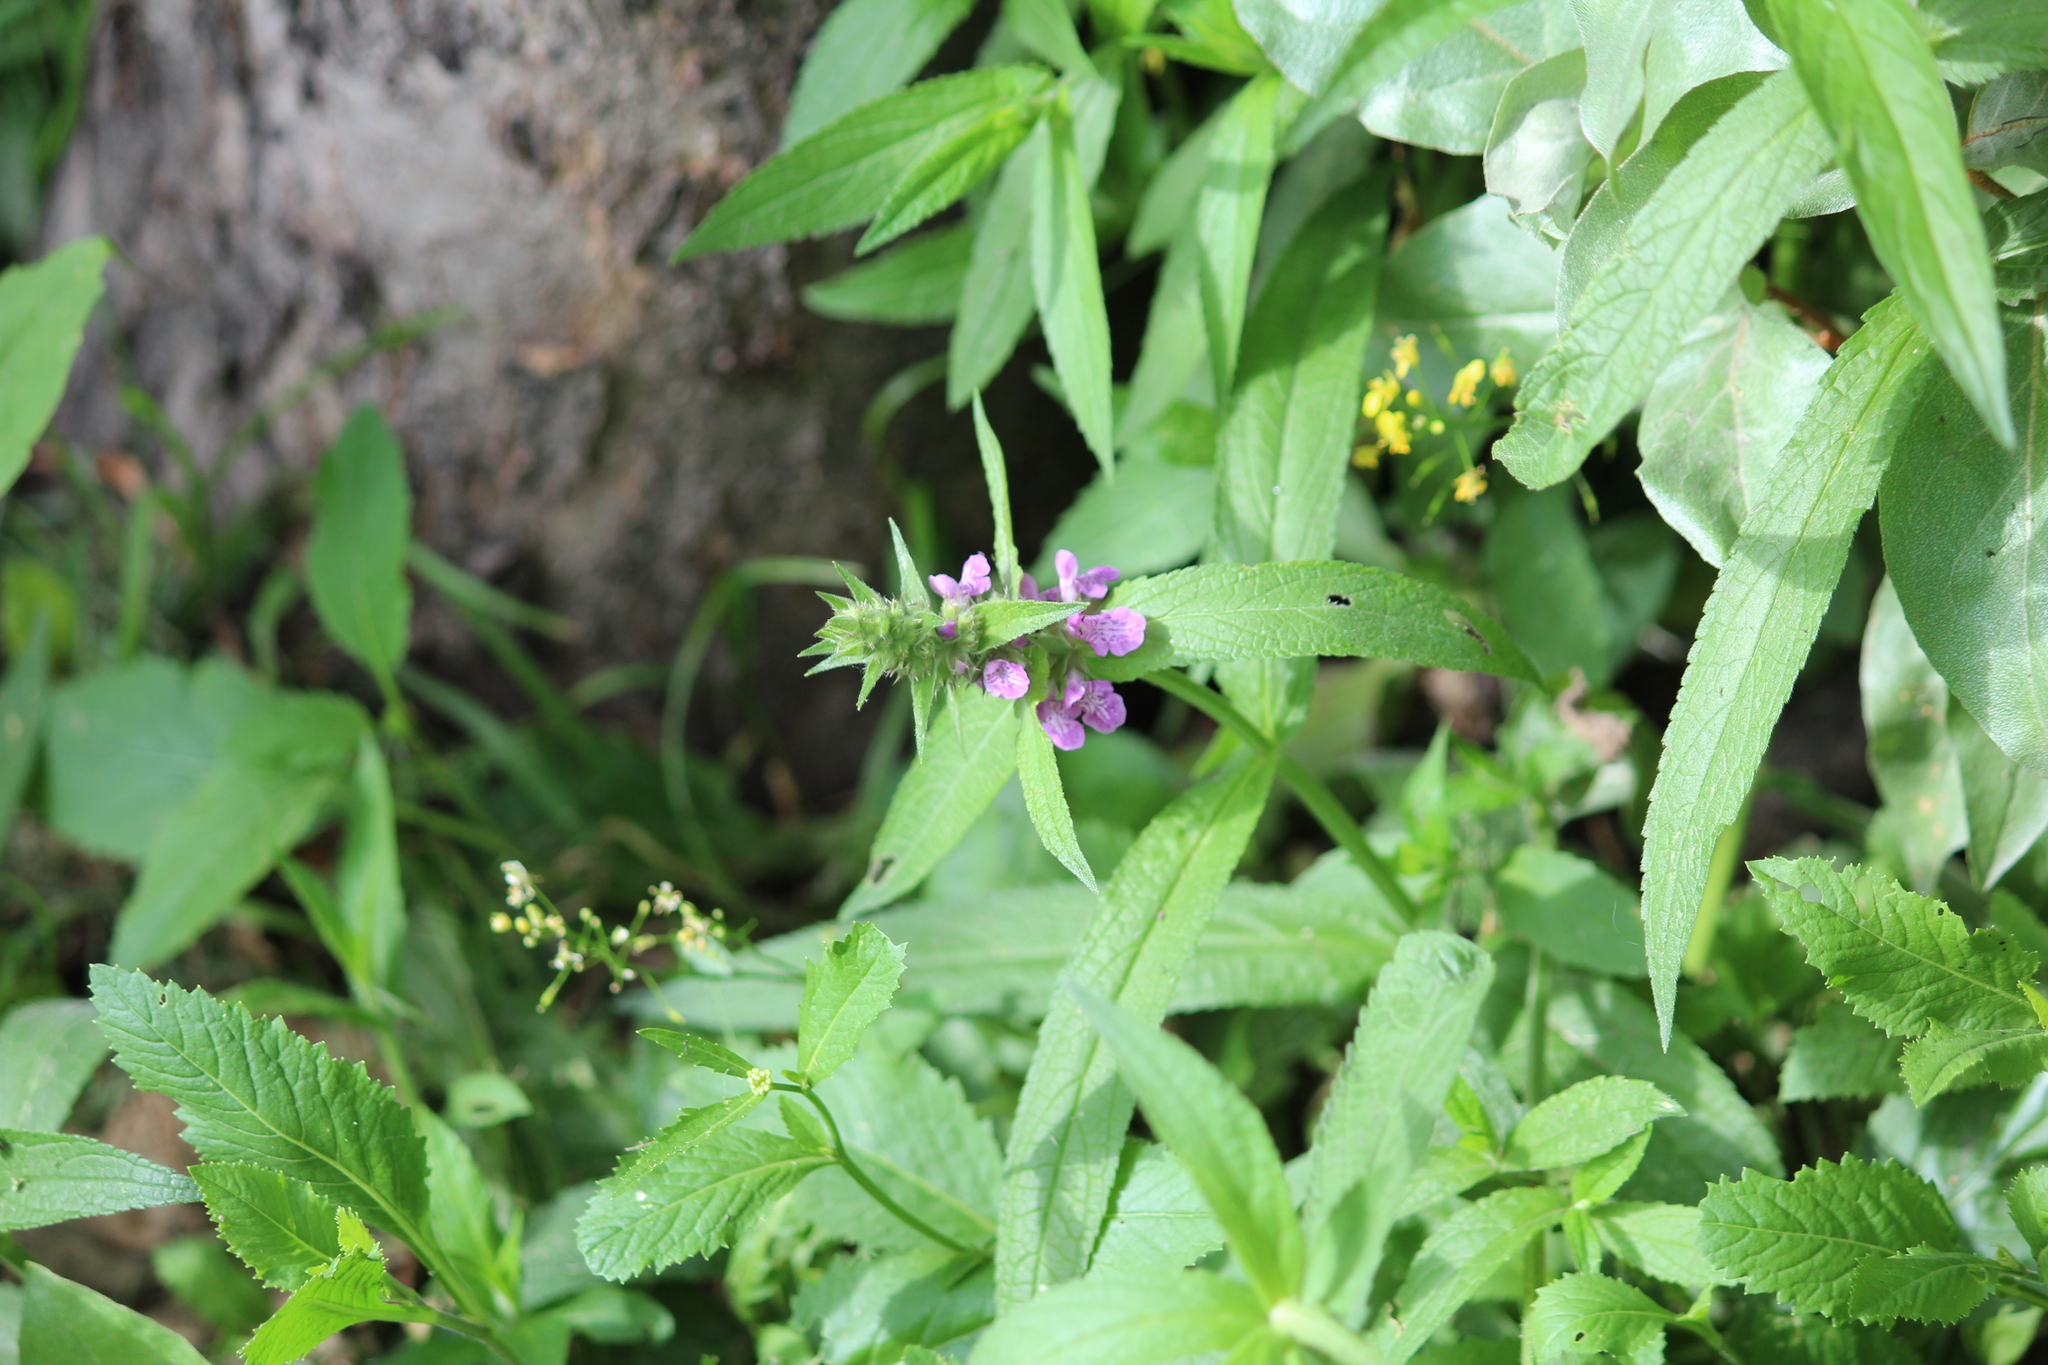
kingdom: Plantae
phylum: Tracheophyta
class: Magnoliopsida
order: Lamiales
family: Lamiaceae
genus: Stachys
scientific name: Stachys palustris
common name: Marsh woundwort
